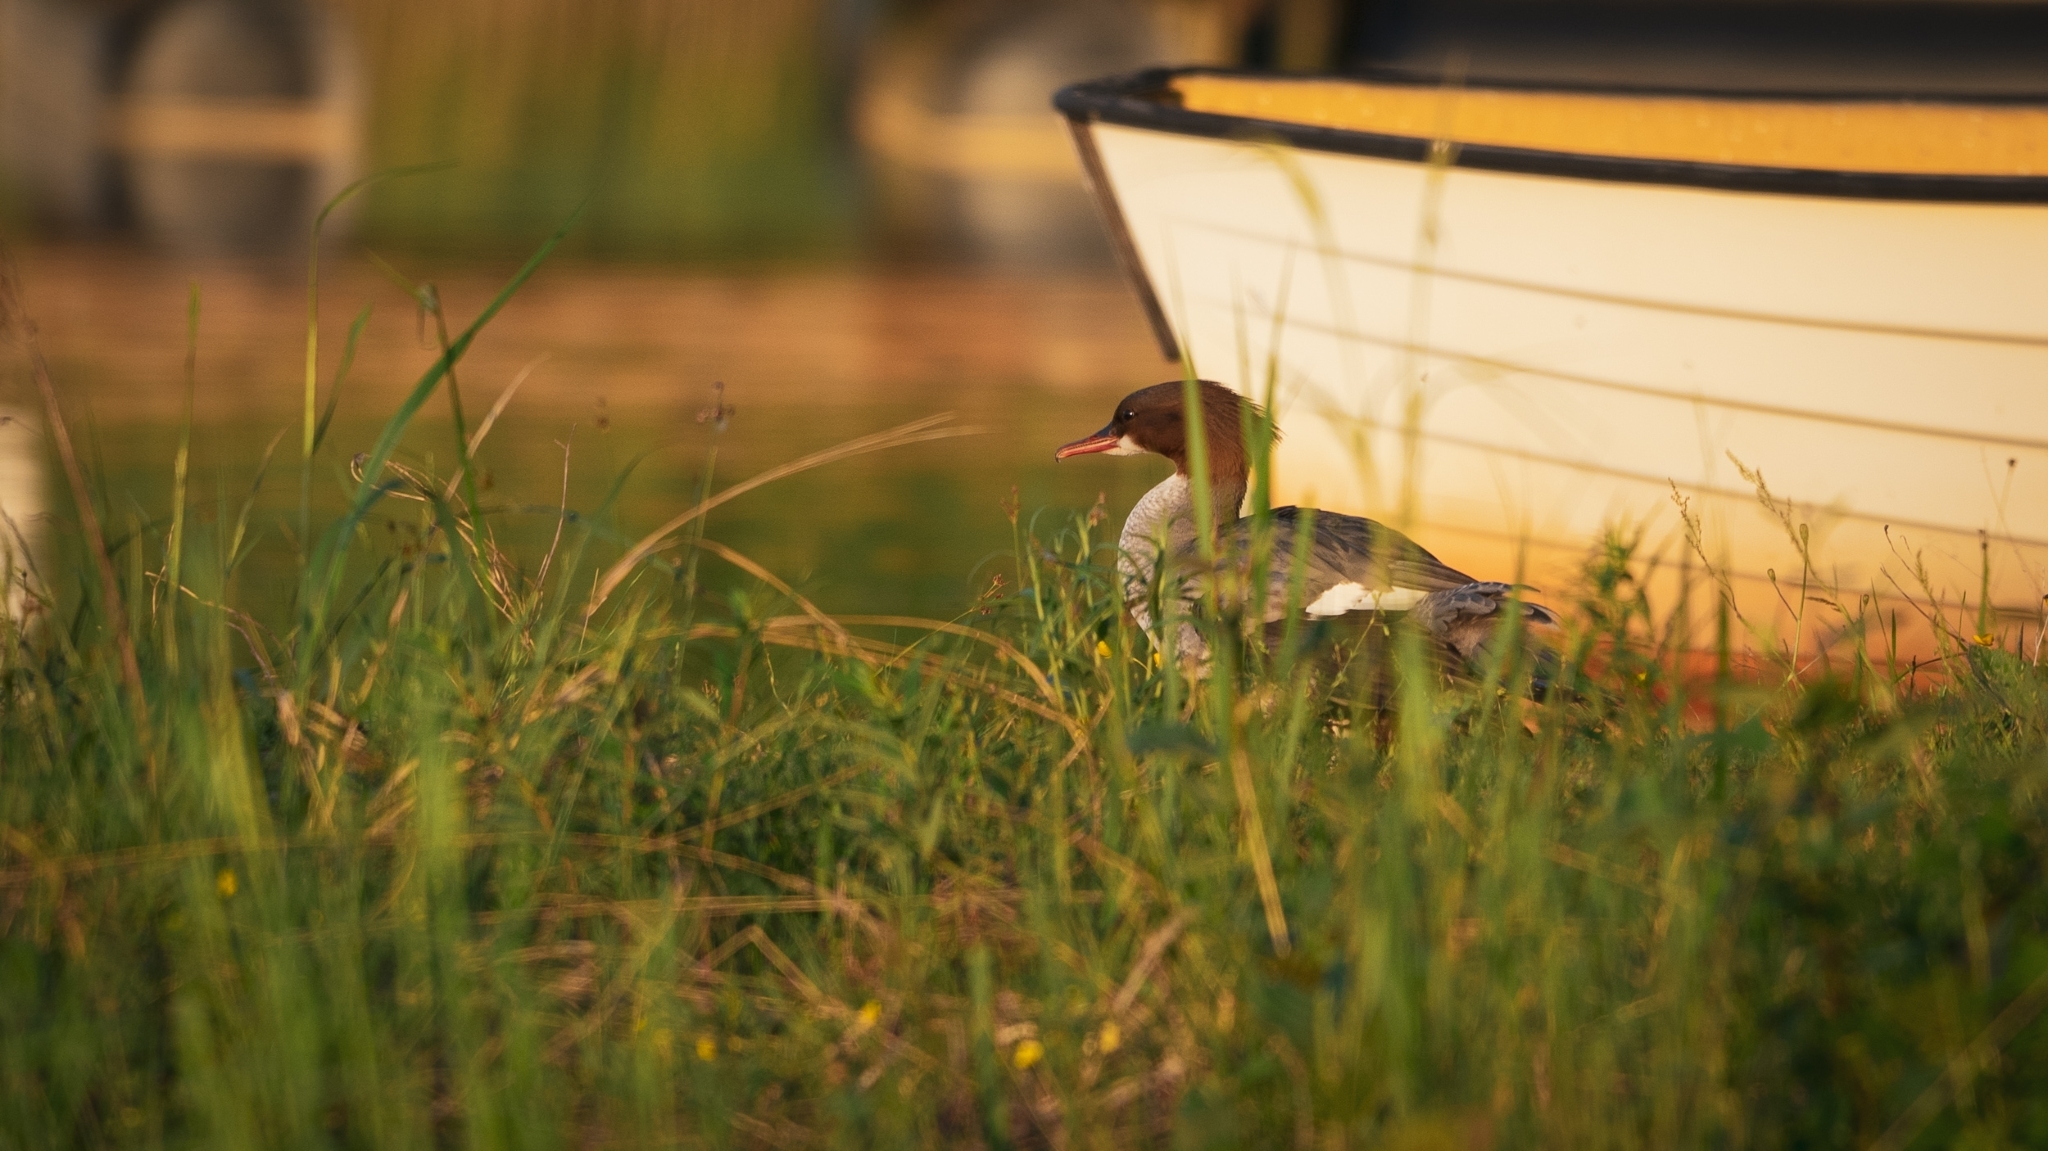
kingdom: Animalia
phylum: Chordata
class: Aves
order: Anseriformes
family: Anatidae
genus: Mergus
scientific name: Mergus merganser
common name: Common merganser
